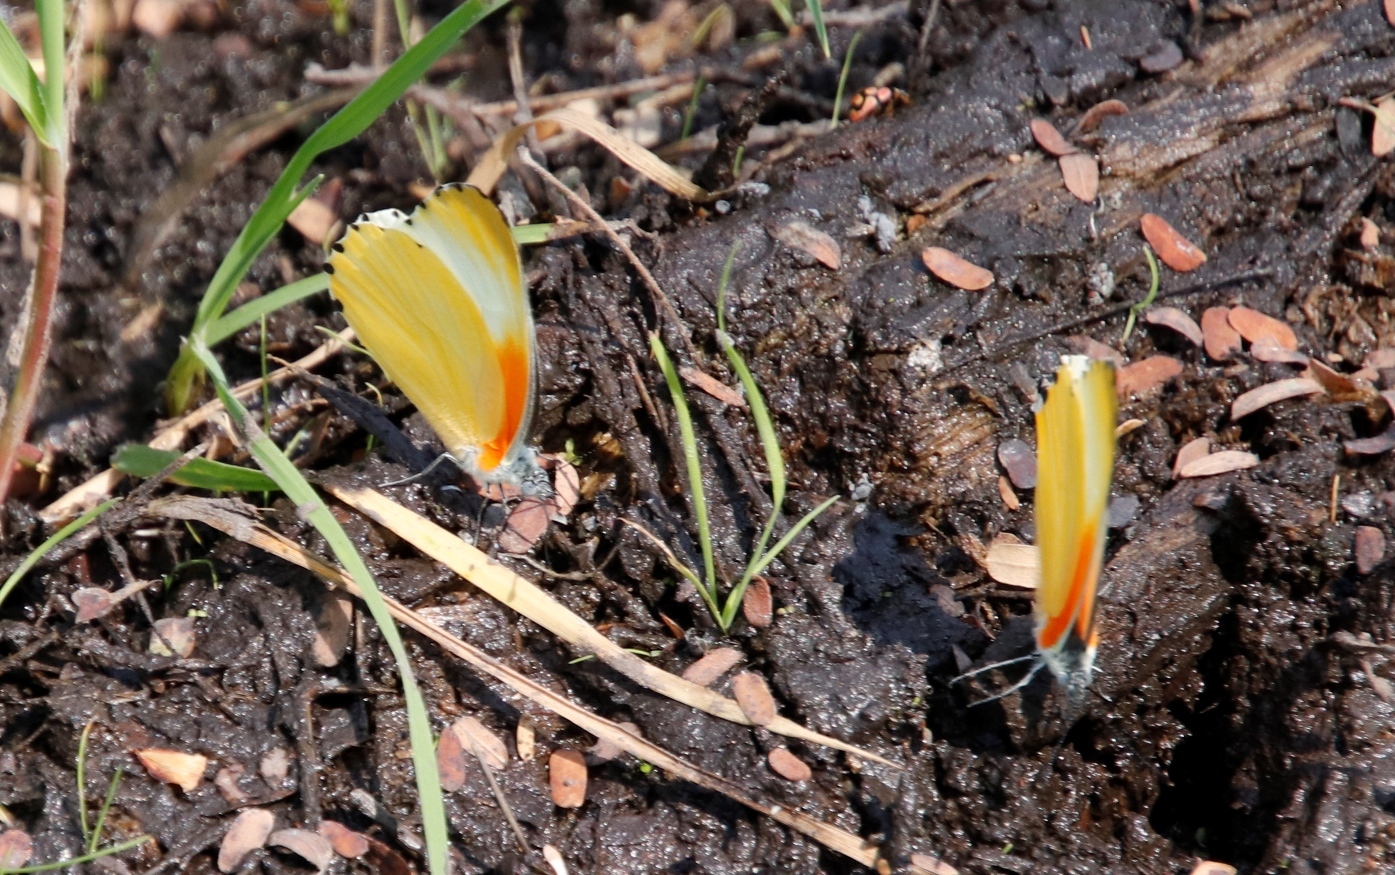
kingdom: Animalia
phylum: Arthropoda
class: Insecta
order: Lepidoptera
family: Pieridae
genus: Mylothris
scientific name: Mylothris agathina
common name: Eastern dotted border
